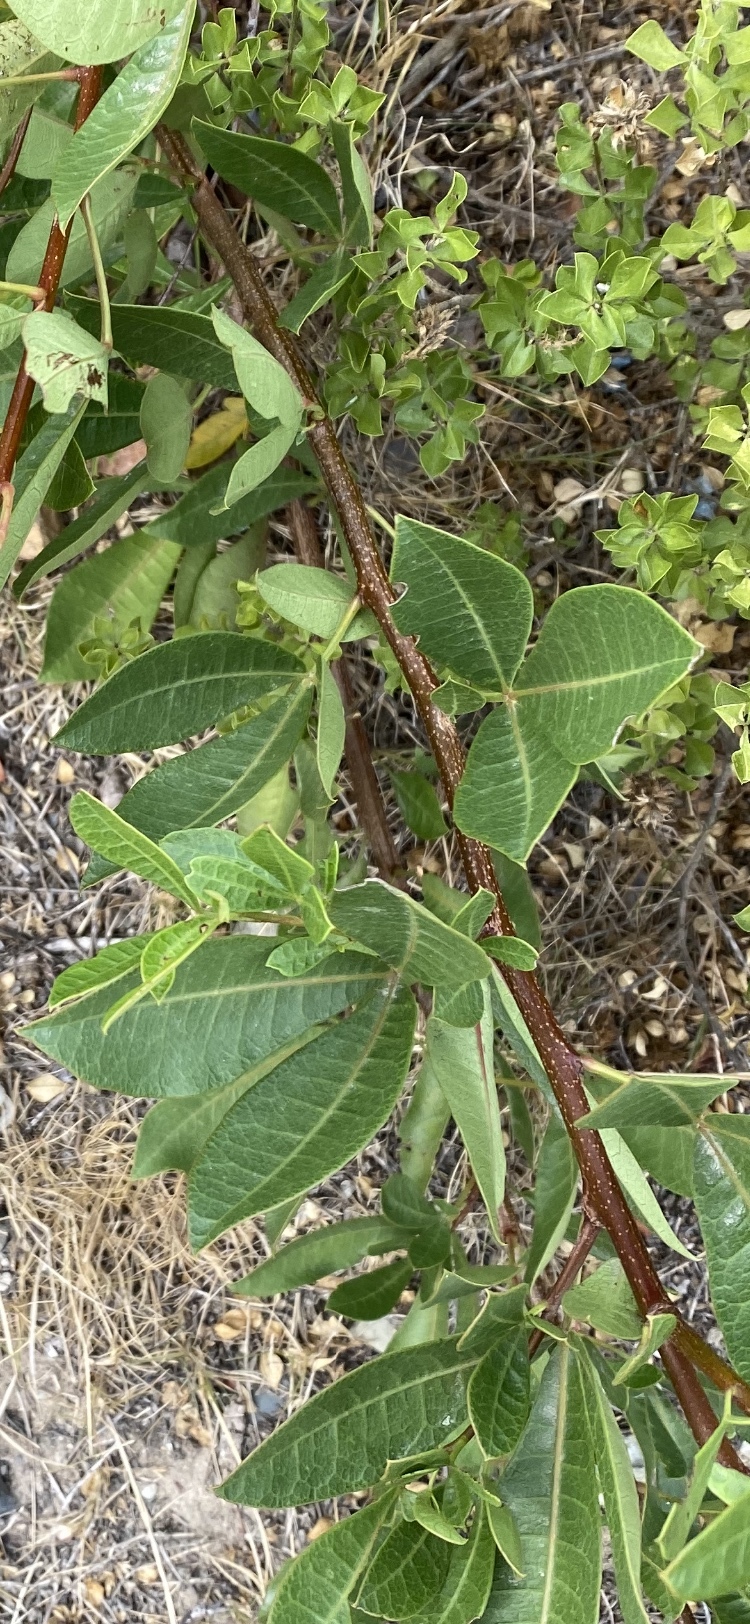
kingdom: Plantae
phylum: Tracheophyta
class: Magnoliopsida
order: Sapindales
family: Anacardiaceae
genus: Searsia
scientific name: Searsia laevigata
